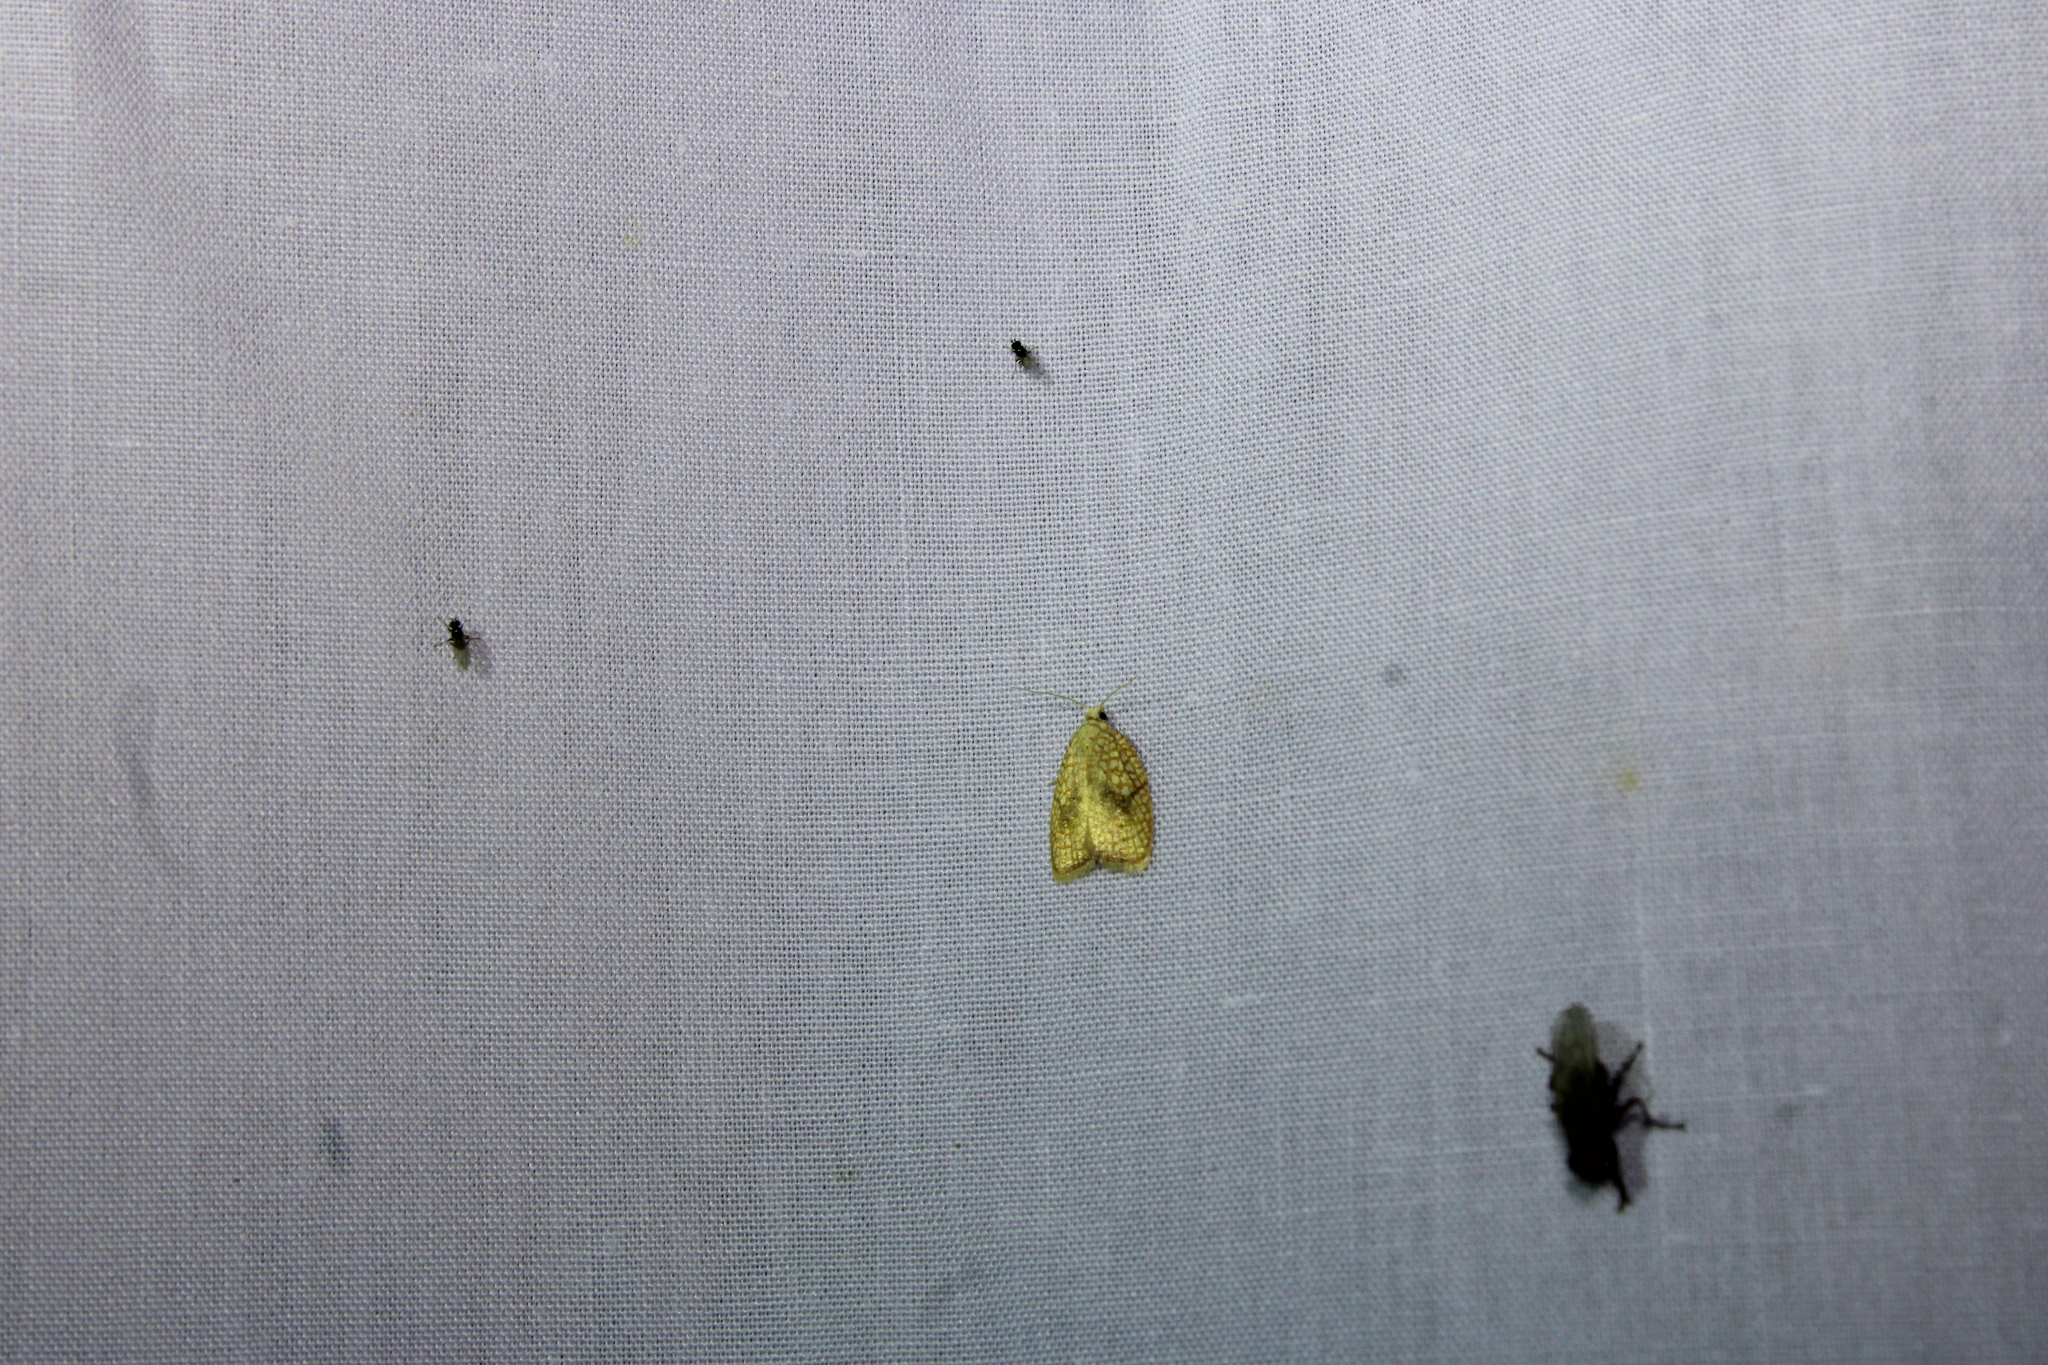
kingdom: Animalia
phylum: Arthropoda
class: Insecta
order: Lepidoptera
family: Tortricidae
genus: Acleris
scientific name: Acleris forsskaleana
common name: Maple button
